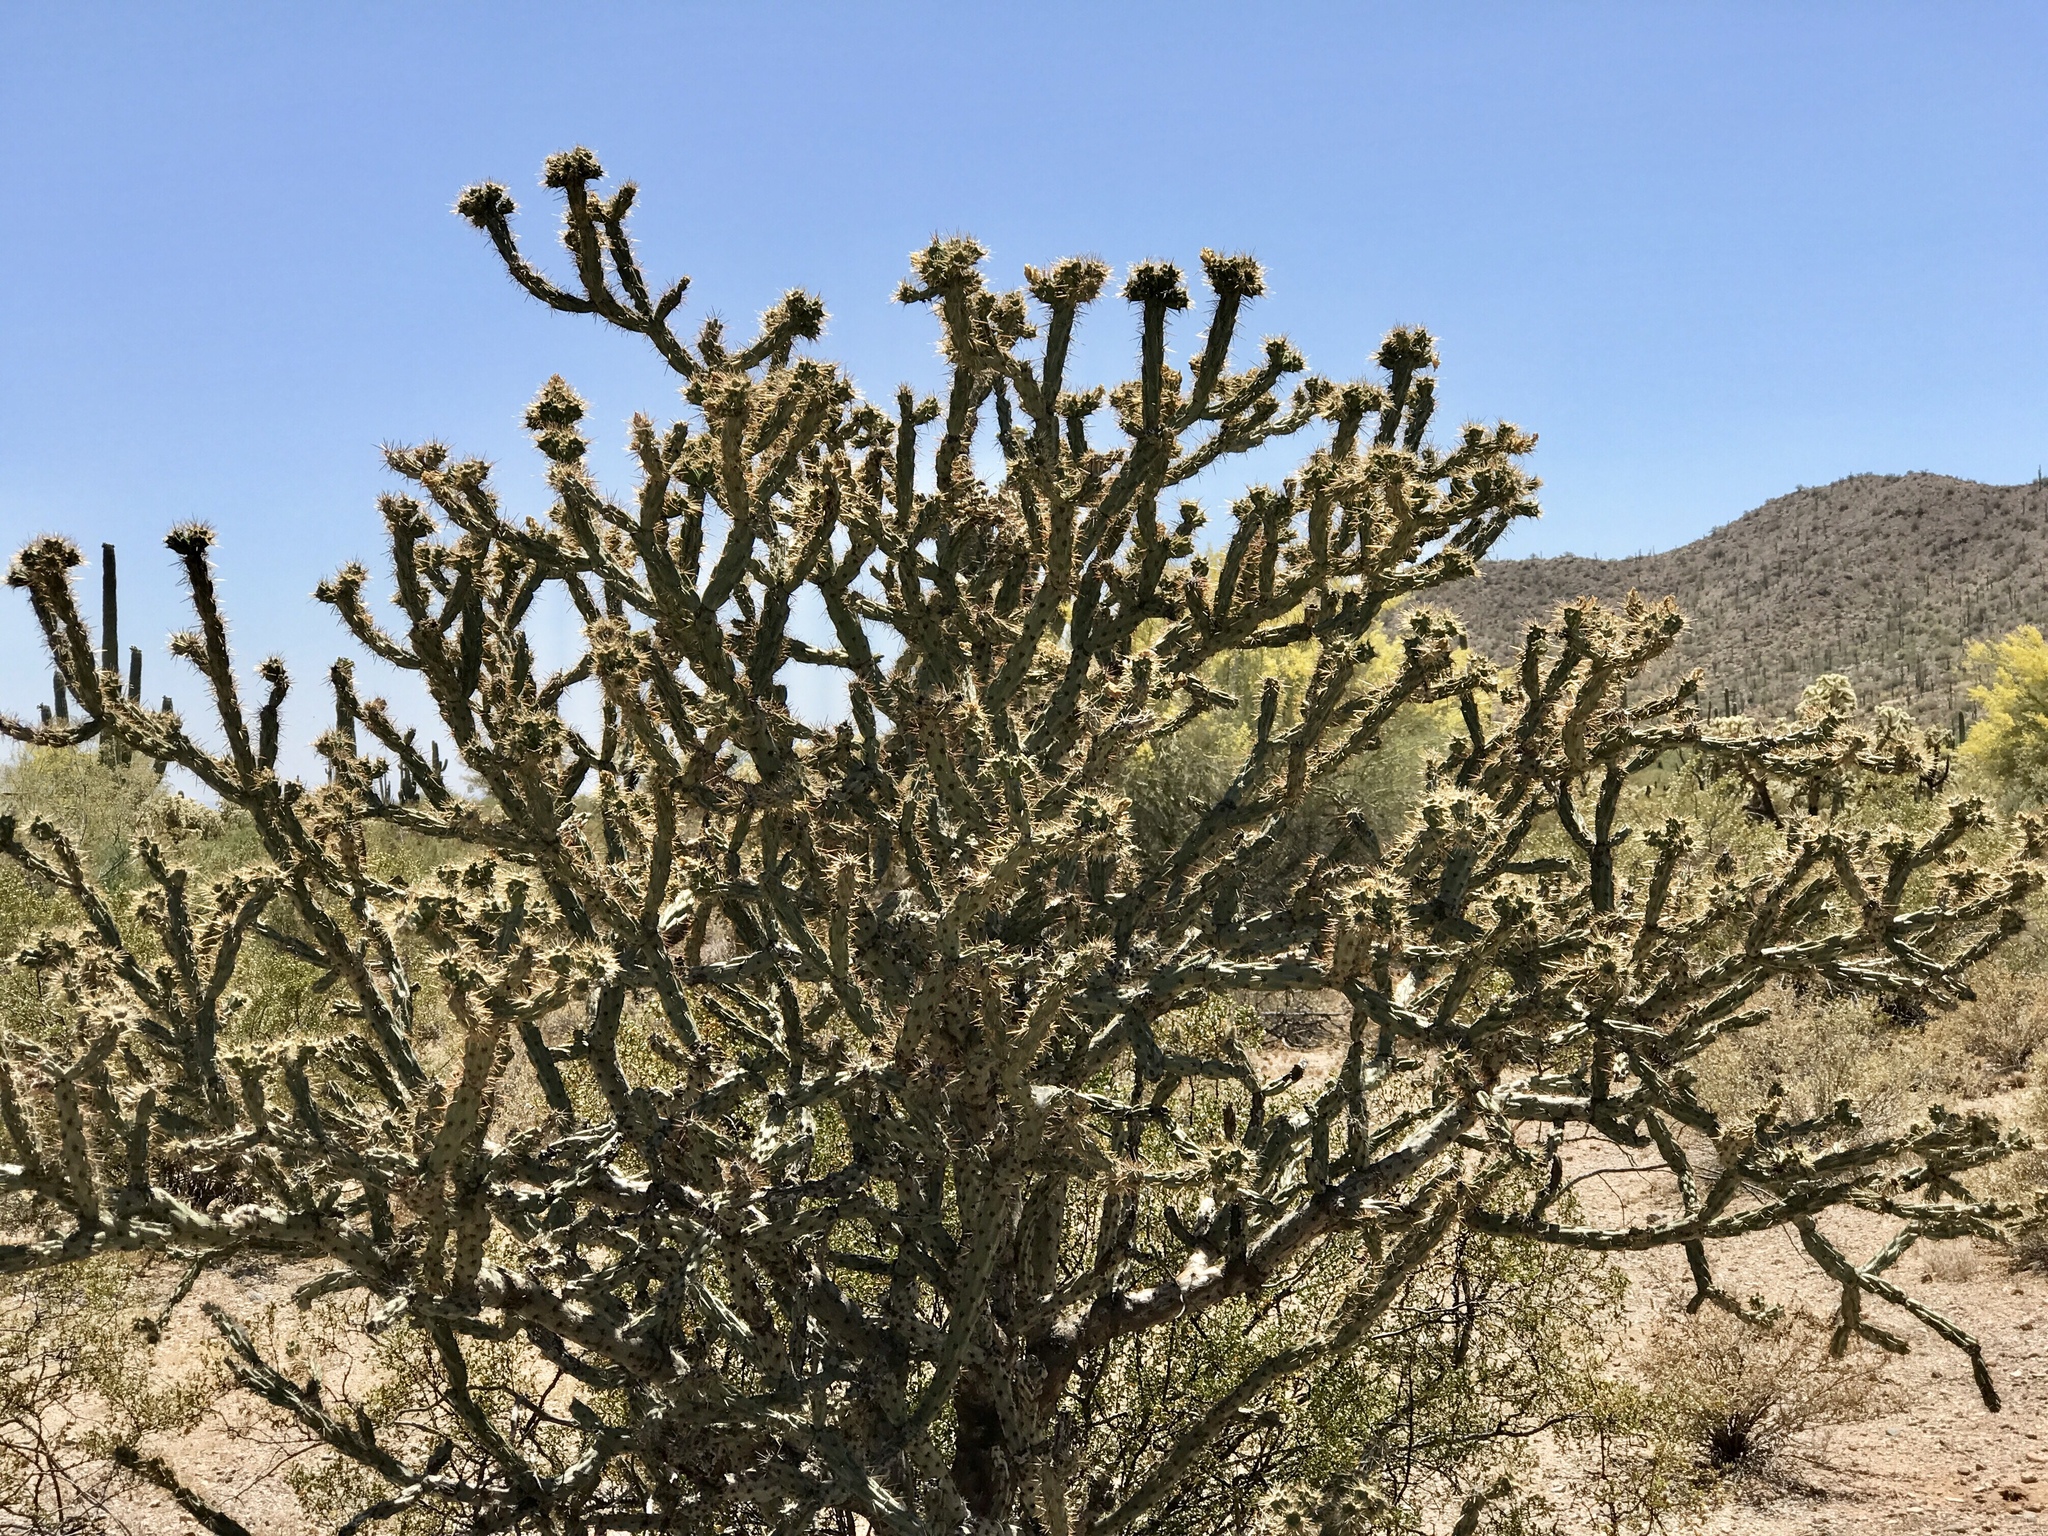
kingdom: Plantae
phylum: Tracheophyta
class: Magnoliopsida
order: Caryophyllales
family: Cactaceae
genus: Cylindropuntia
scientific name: Cylindropuntia acanthocarpa
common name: Buckhorn cholla
